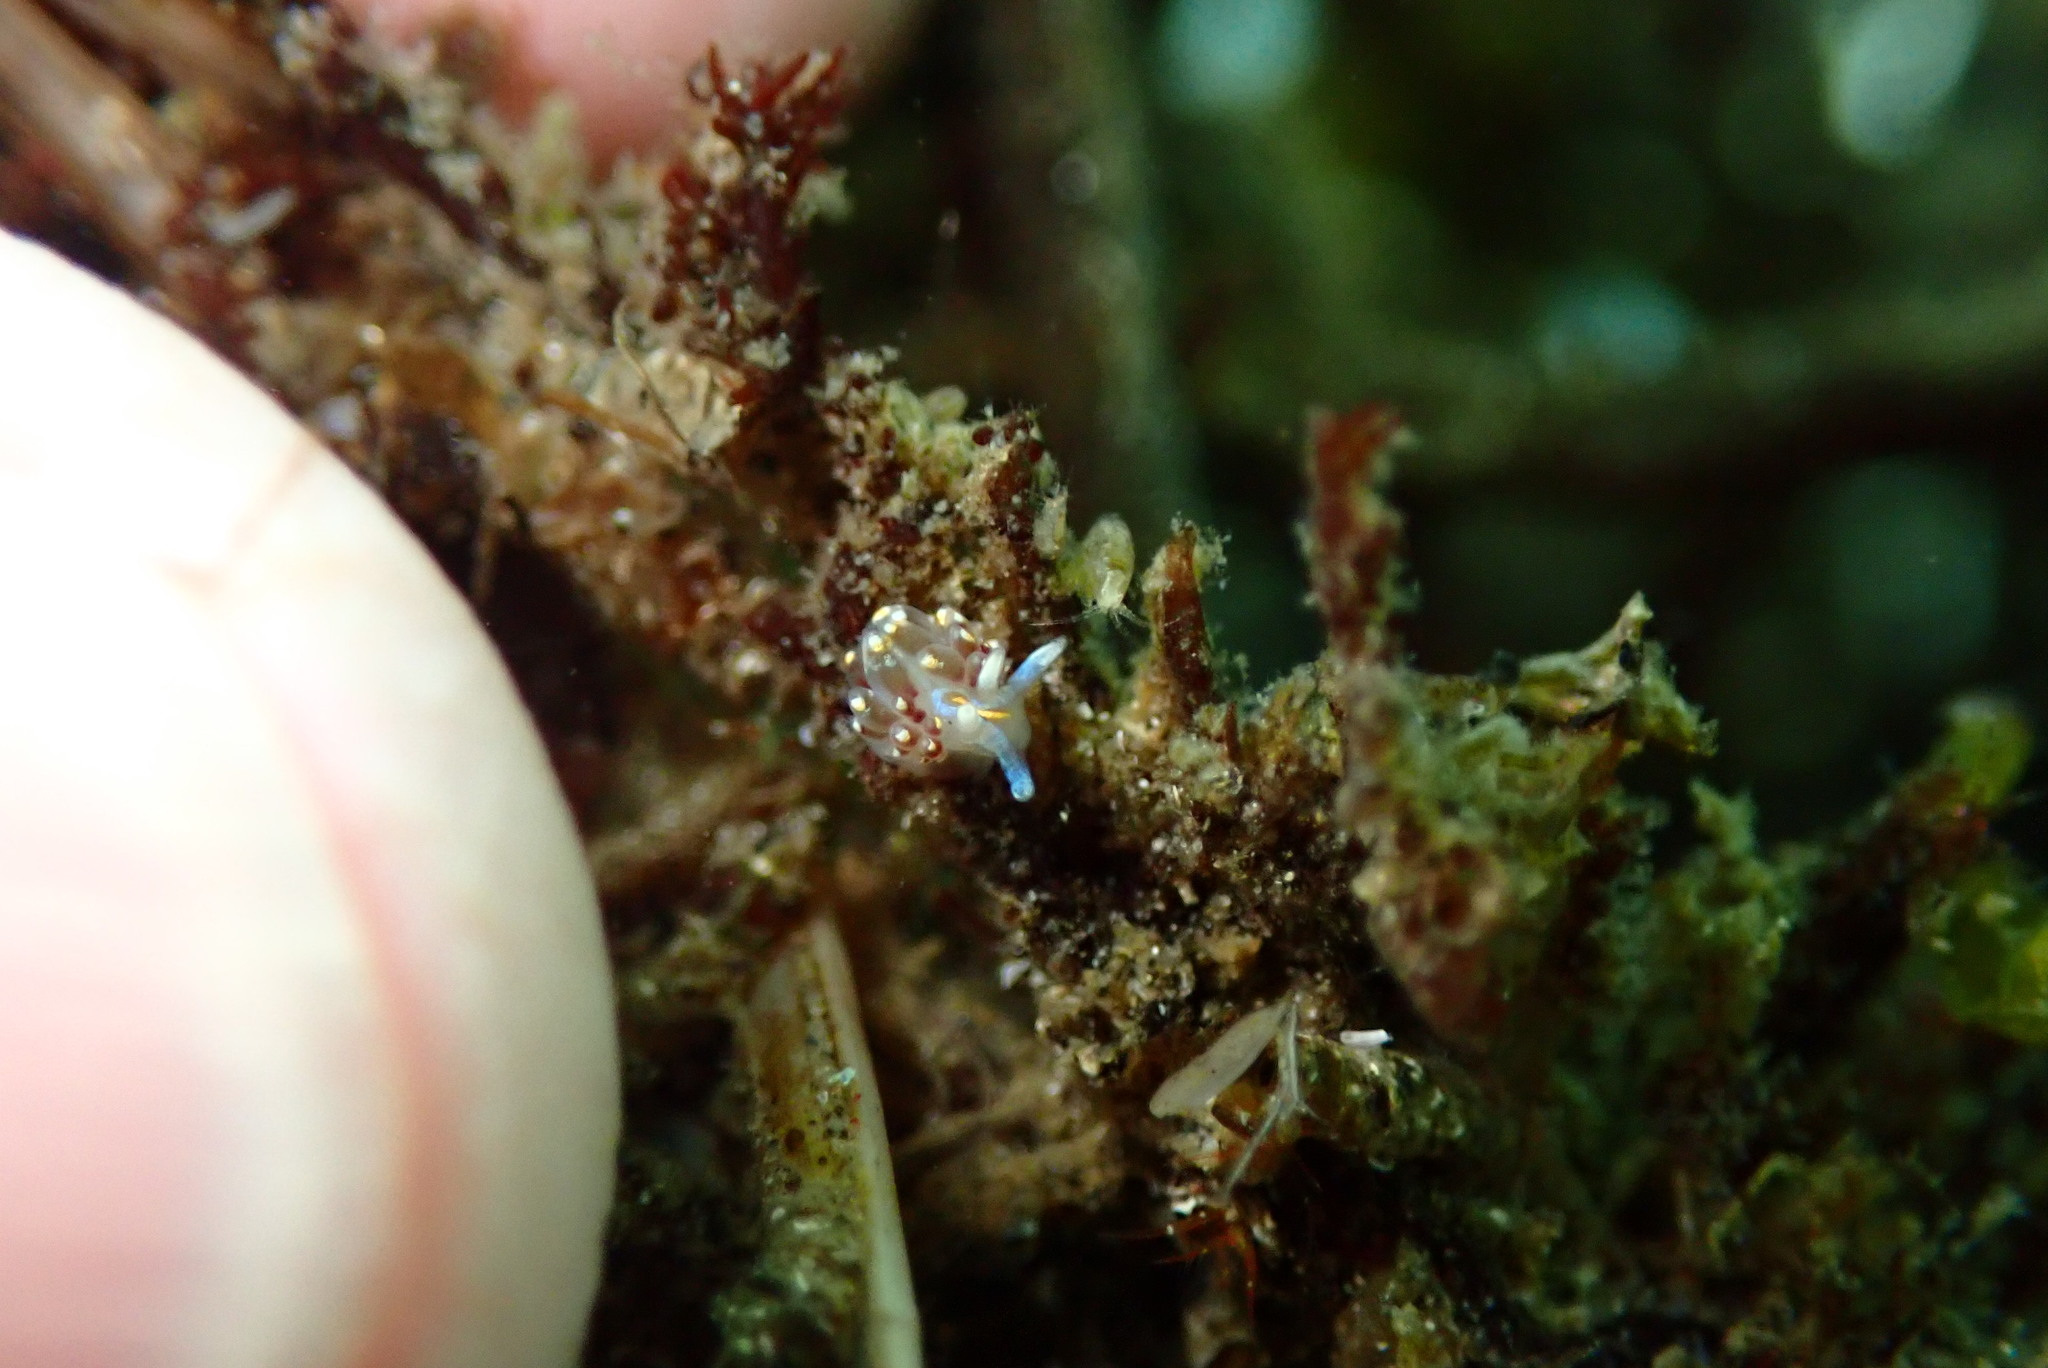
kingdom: Animalia
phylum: Mollusca
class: Gastropoda
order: Nudibranchia
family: Myrrhinidae
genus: Hermissenda
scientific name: Hermissenda opalescens
